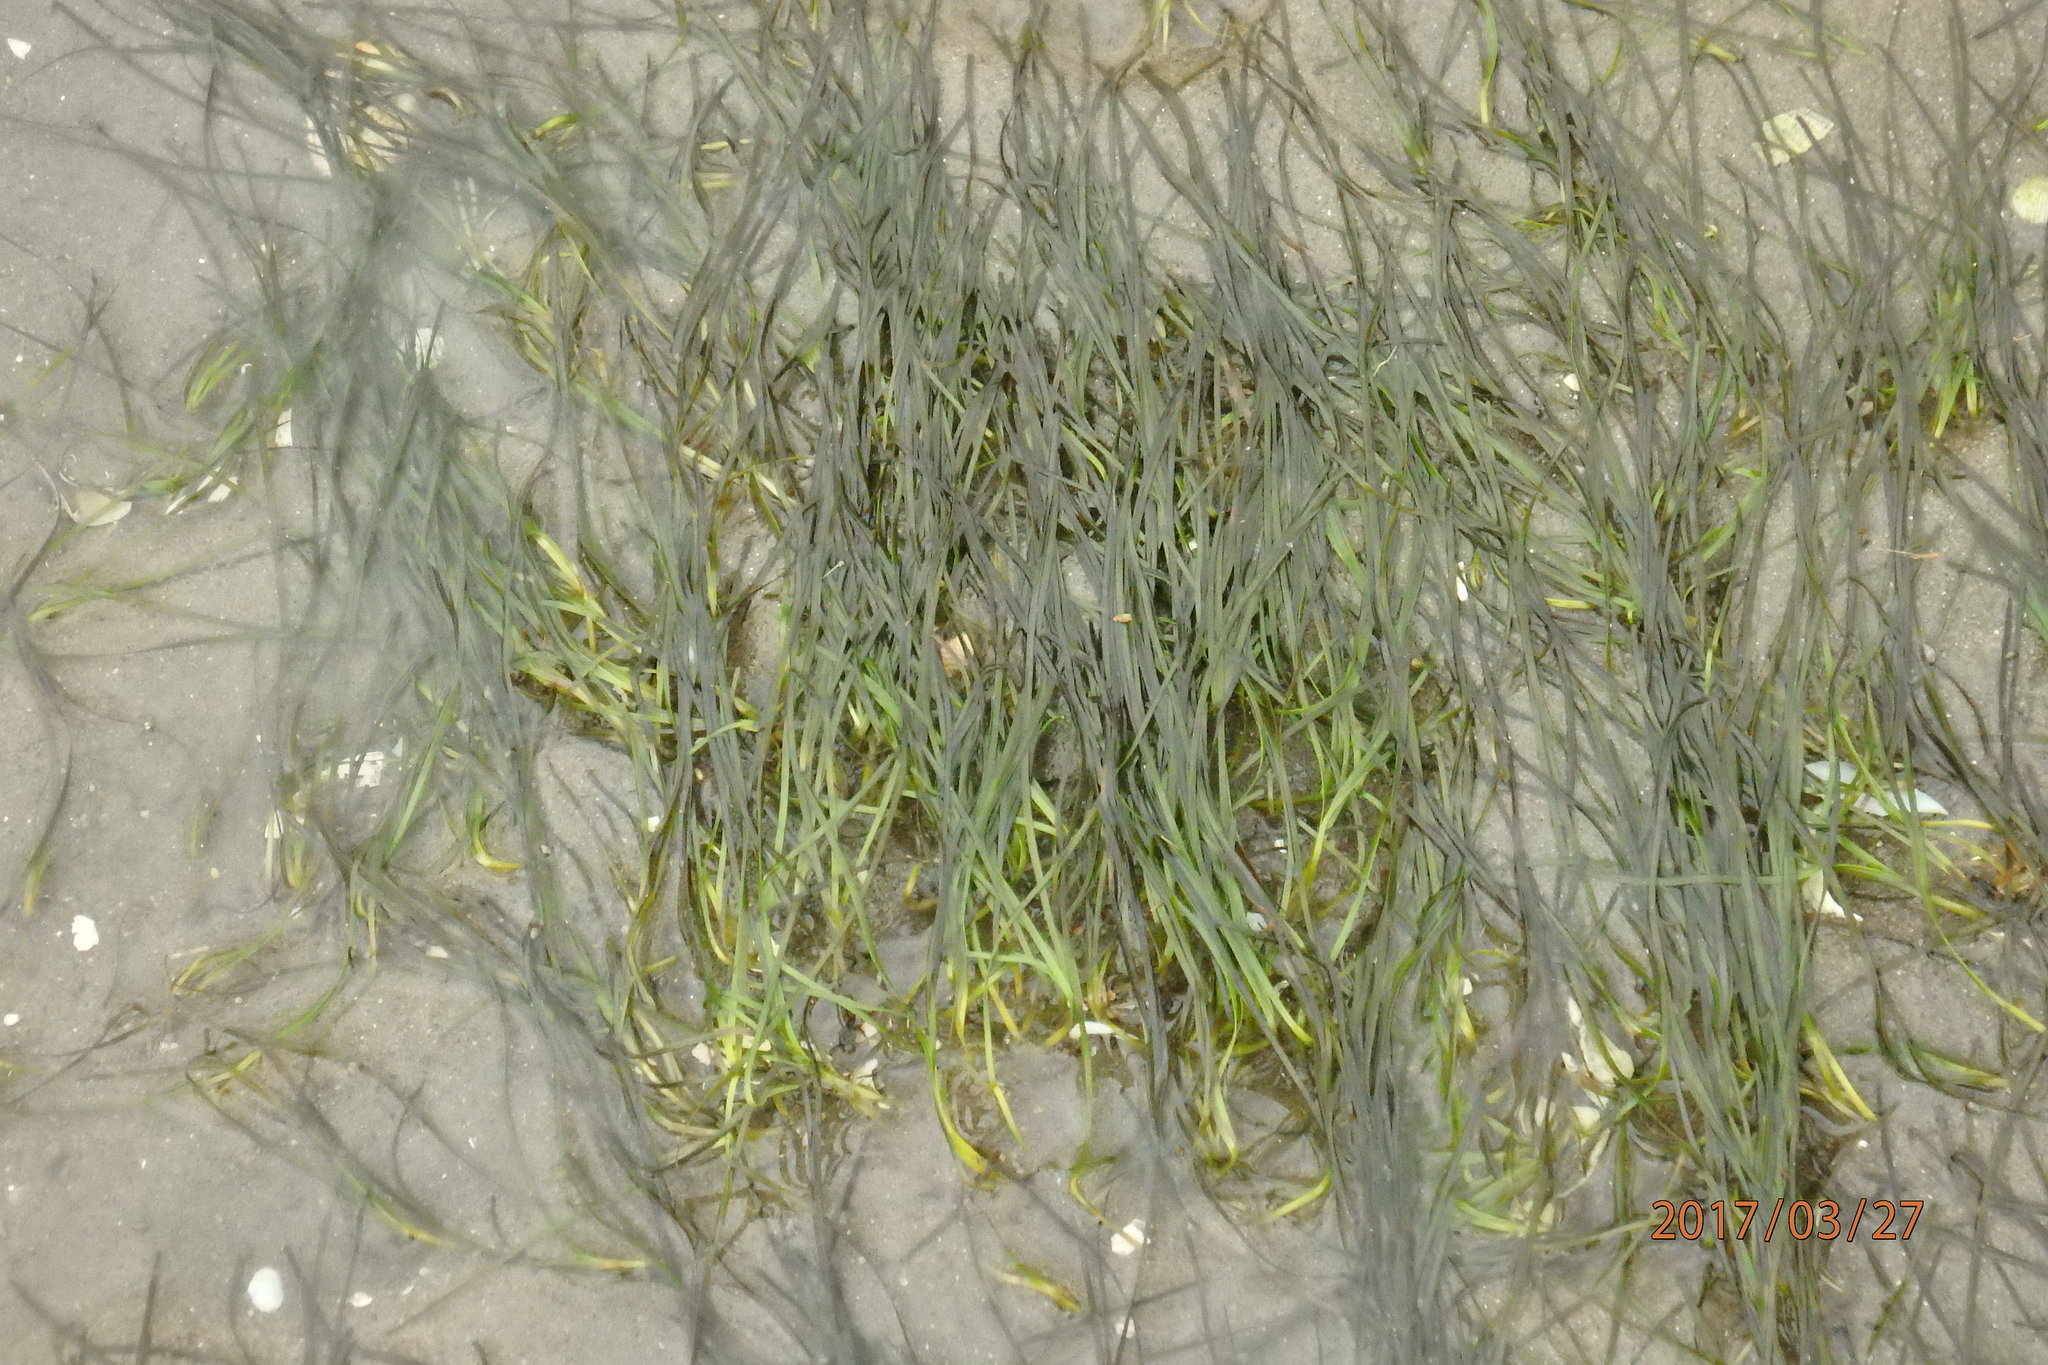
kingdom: Plantae
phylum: Tracheophyta
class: Liliopsida
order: Alismatales
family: Zosteraceae
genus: Zostera
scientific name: Zostera noltii
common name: Dwarf eelgrass
